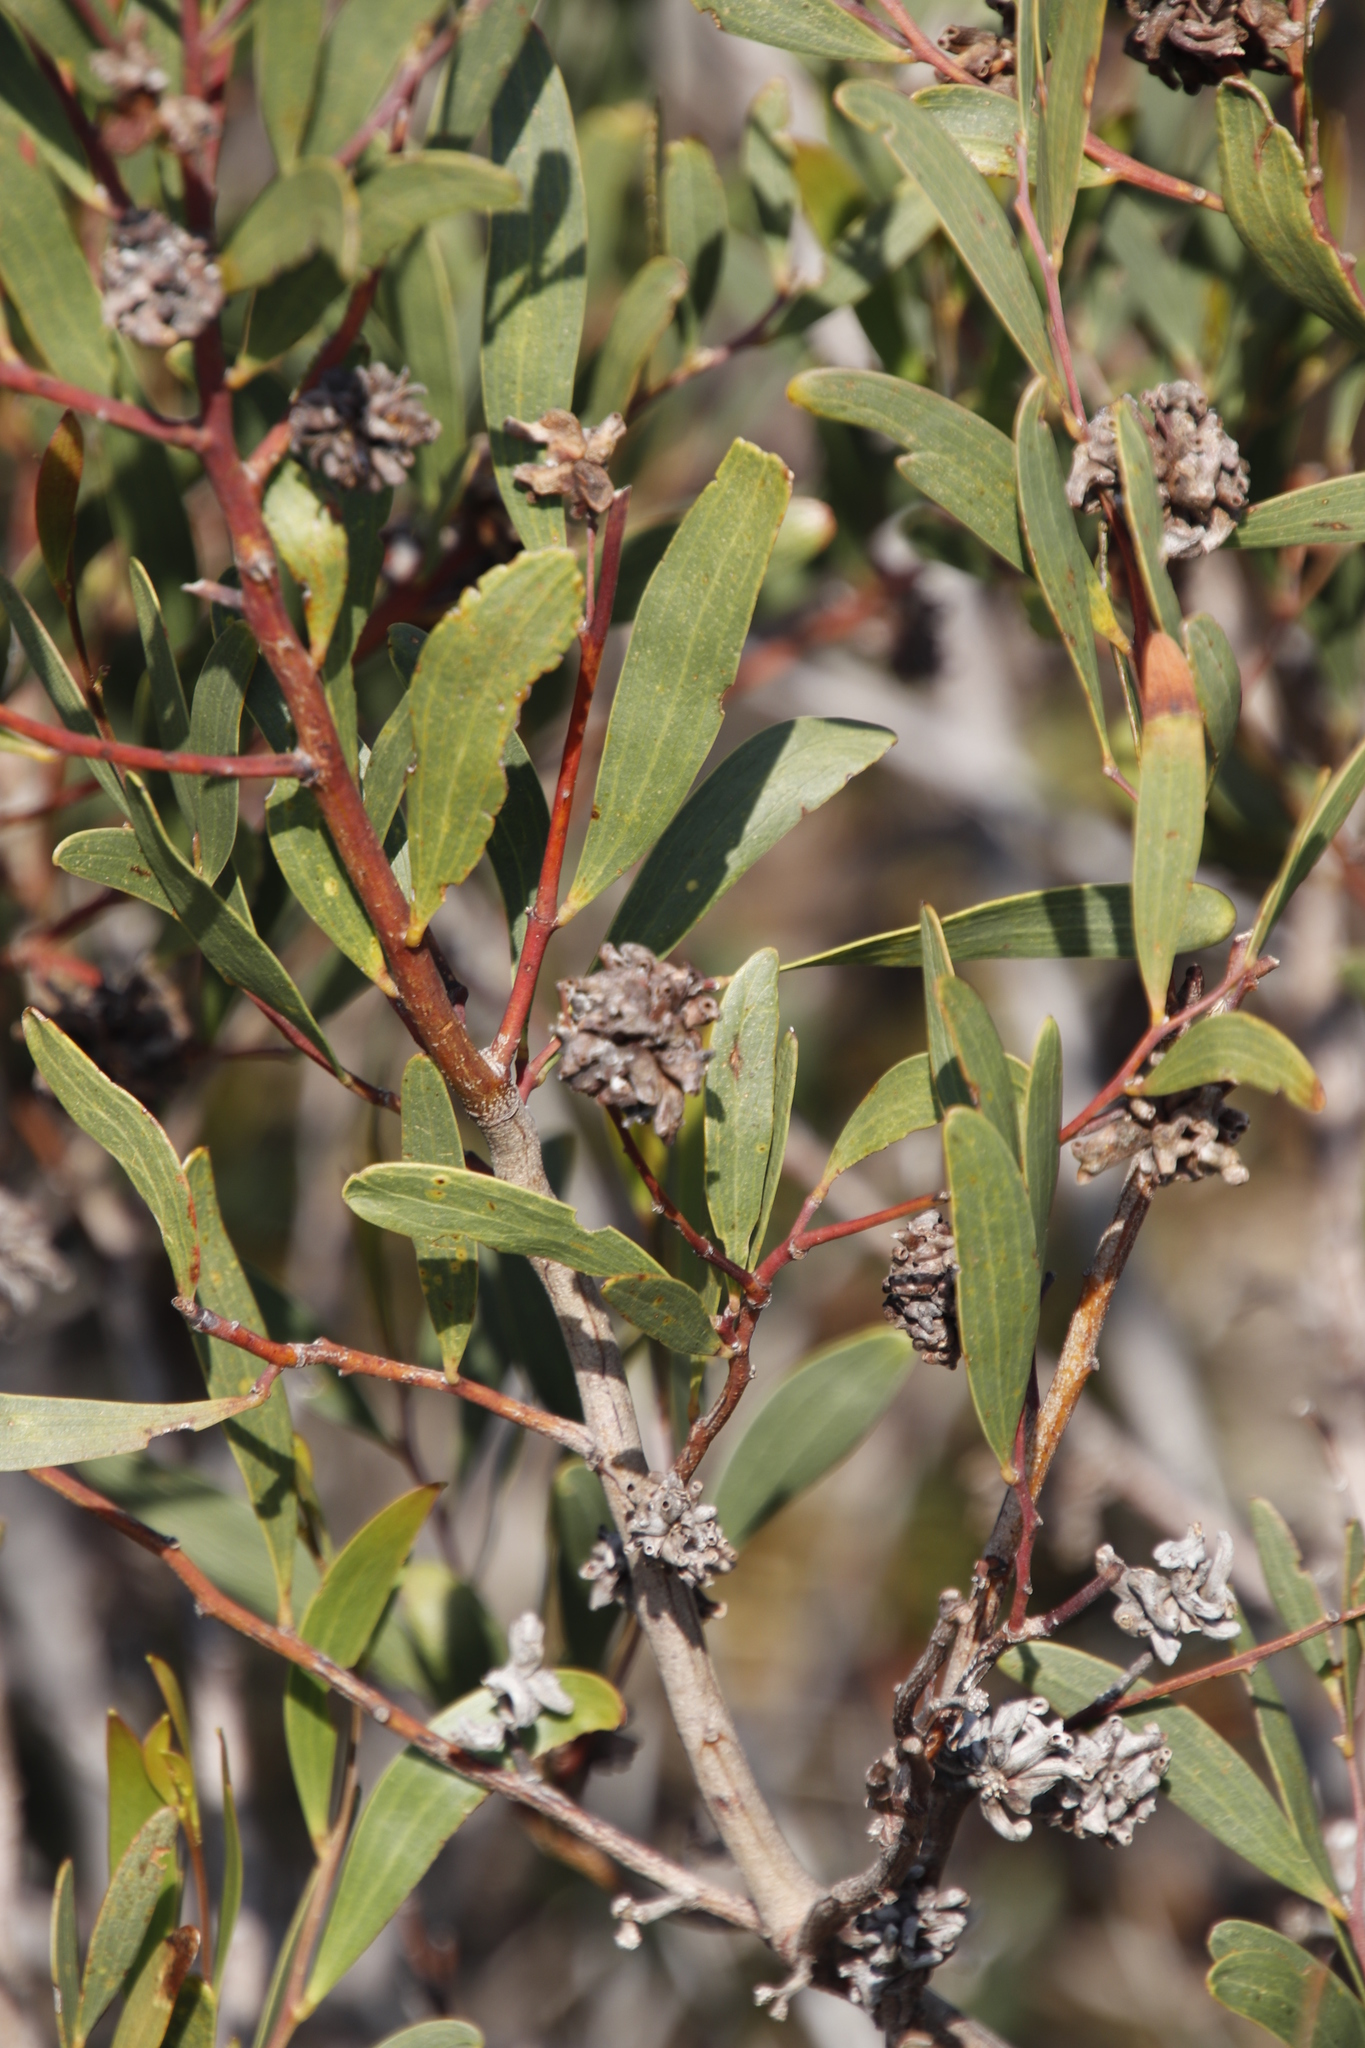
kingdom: Plantae
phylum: Tracheophyta
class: Magnoliopsida
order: Fabales
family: Fabaceae
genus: Acacia
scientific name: Acacia cyclops
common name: Coastal wattle
